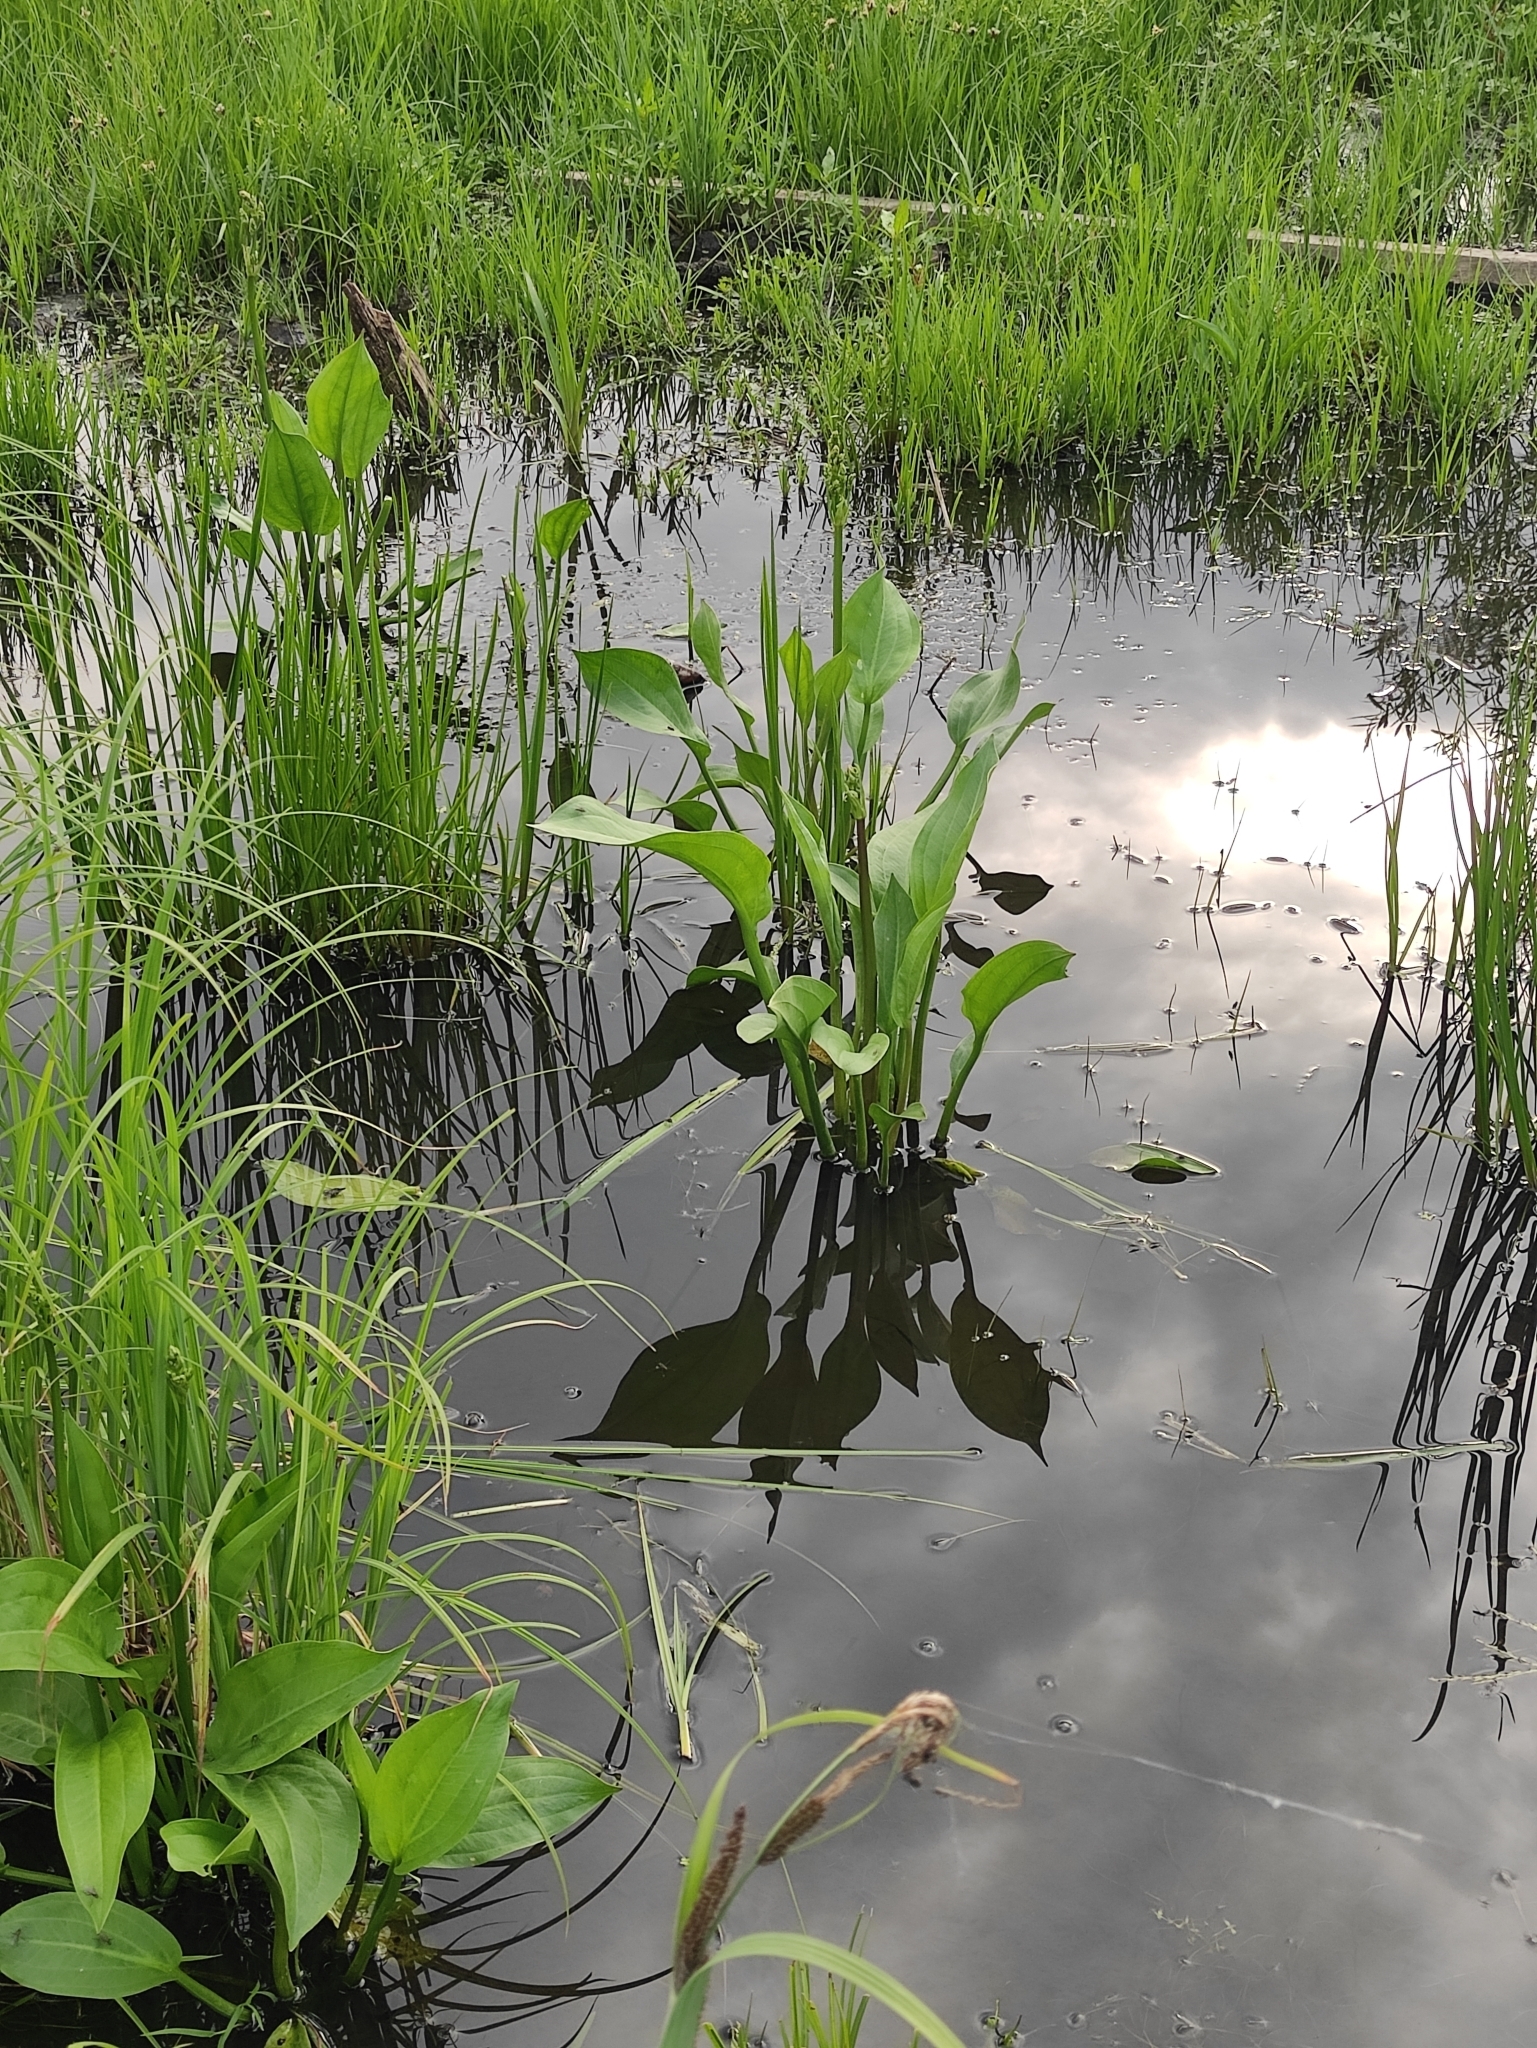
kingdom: Plantae
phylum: Tracheophyta
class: Liliopsida
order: Alismatales
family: Alismataceae
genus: Alisma
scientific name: Alisma plantago-aquatica
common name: Water-plantain
